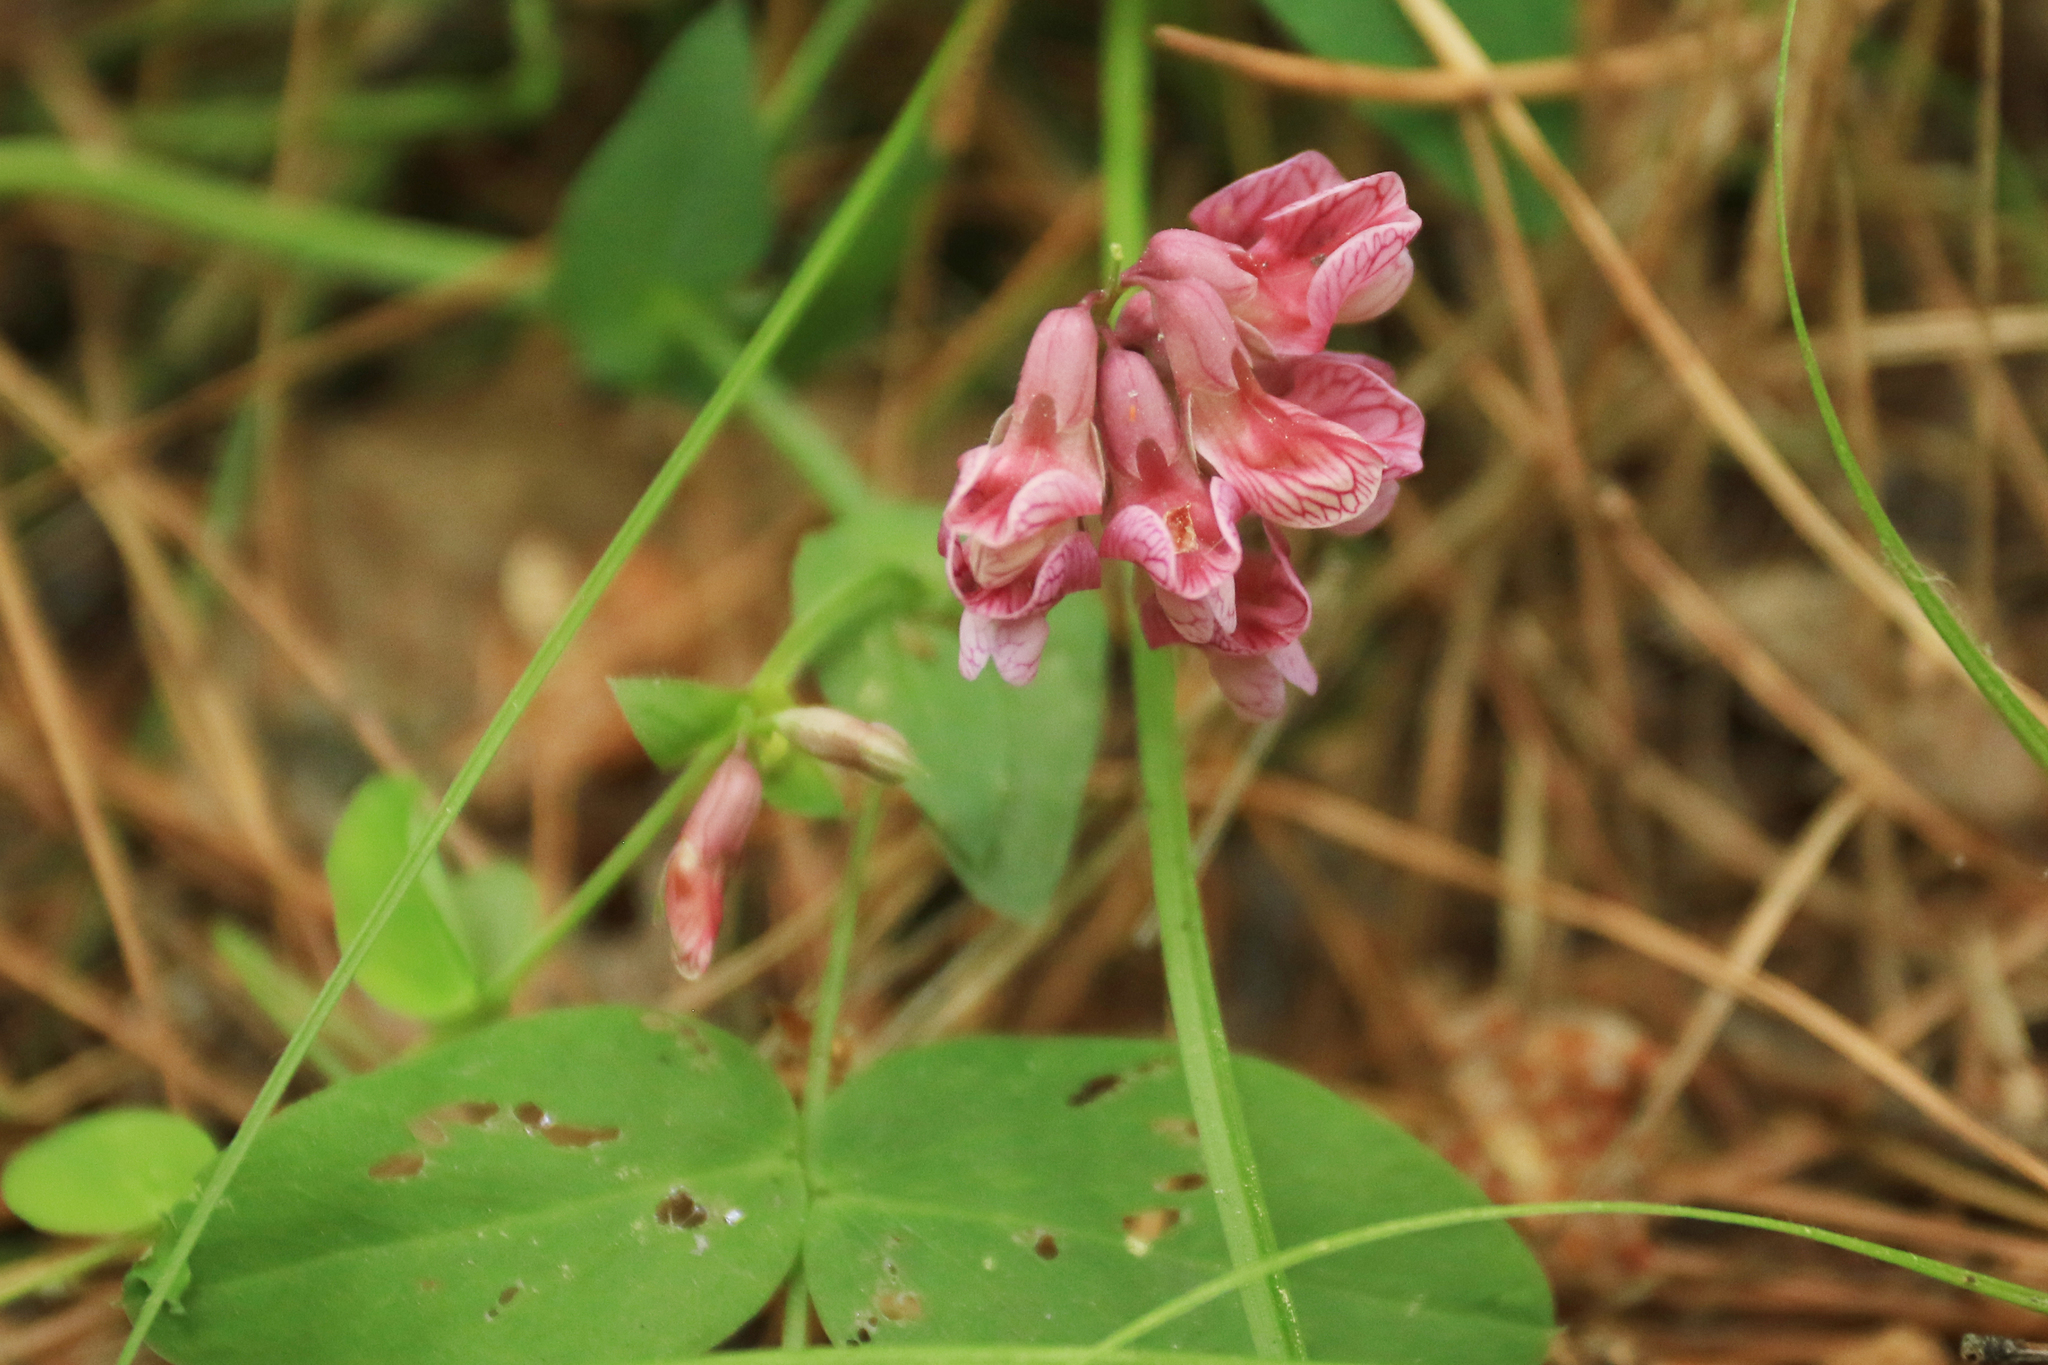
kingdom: Plantae
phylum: Tracheophyta
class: Magnoliopsida
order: Fabales
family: Fabaceae
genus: Lathyrus
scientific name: Lathyrus pisiformis
